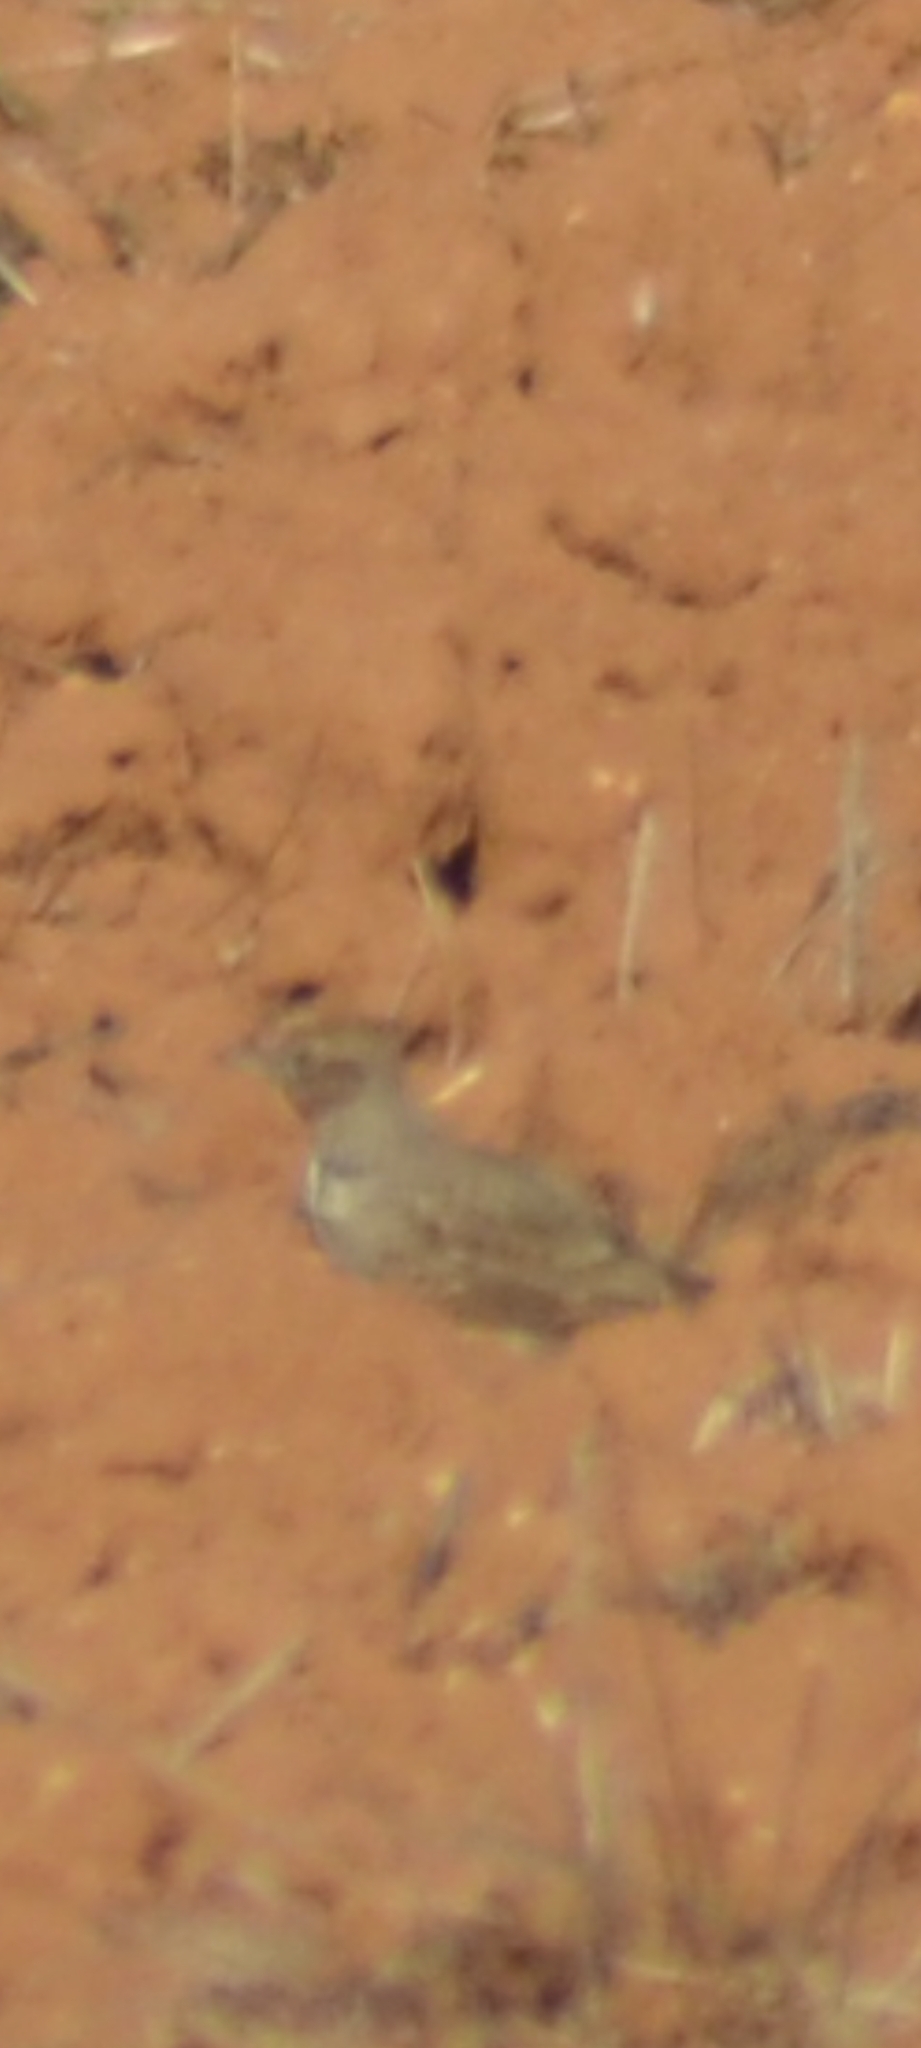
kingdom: Animalia
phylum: Chordata
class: Aves
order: Passeriformes
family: Alaudidae
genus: Galerida
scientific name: Galerida cristata
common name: Crested lark
